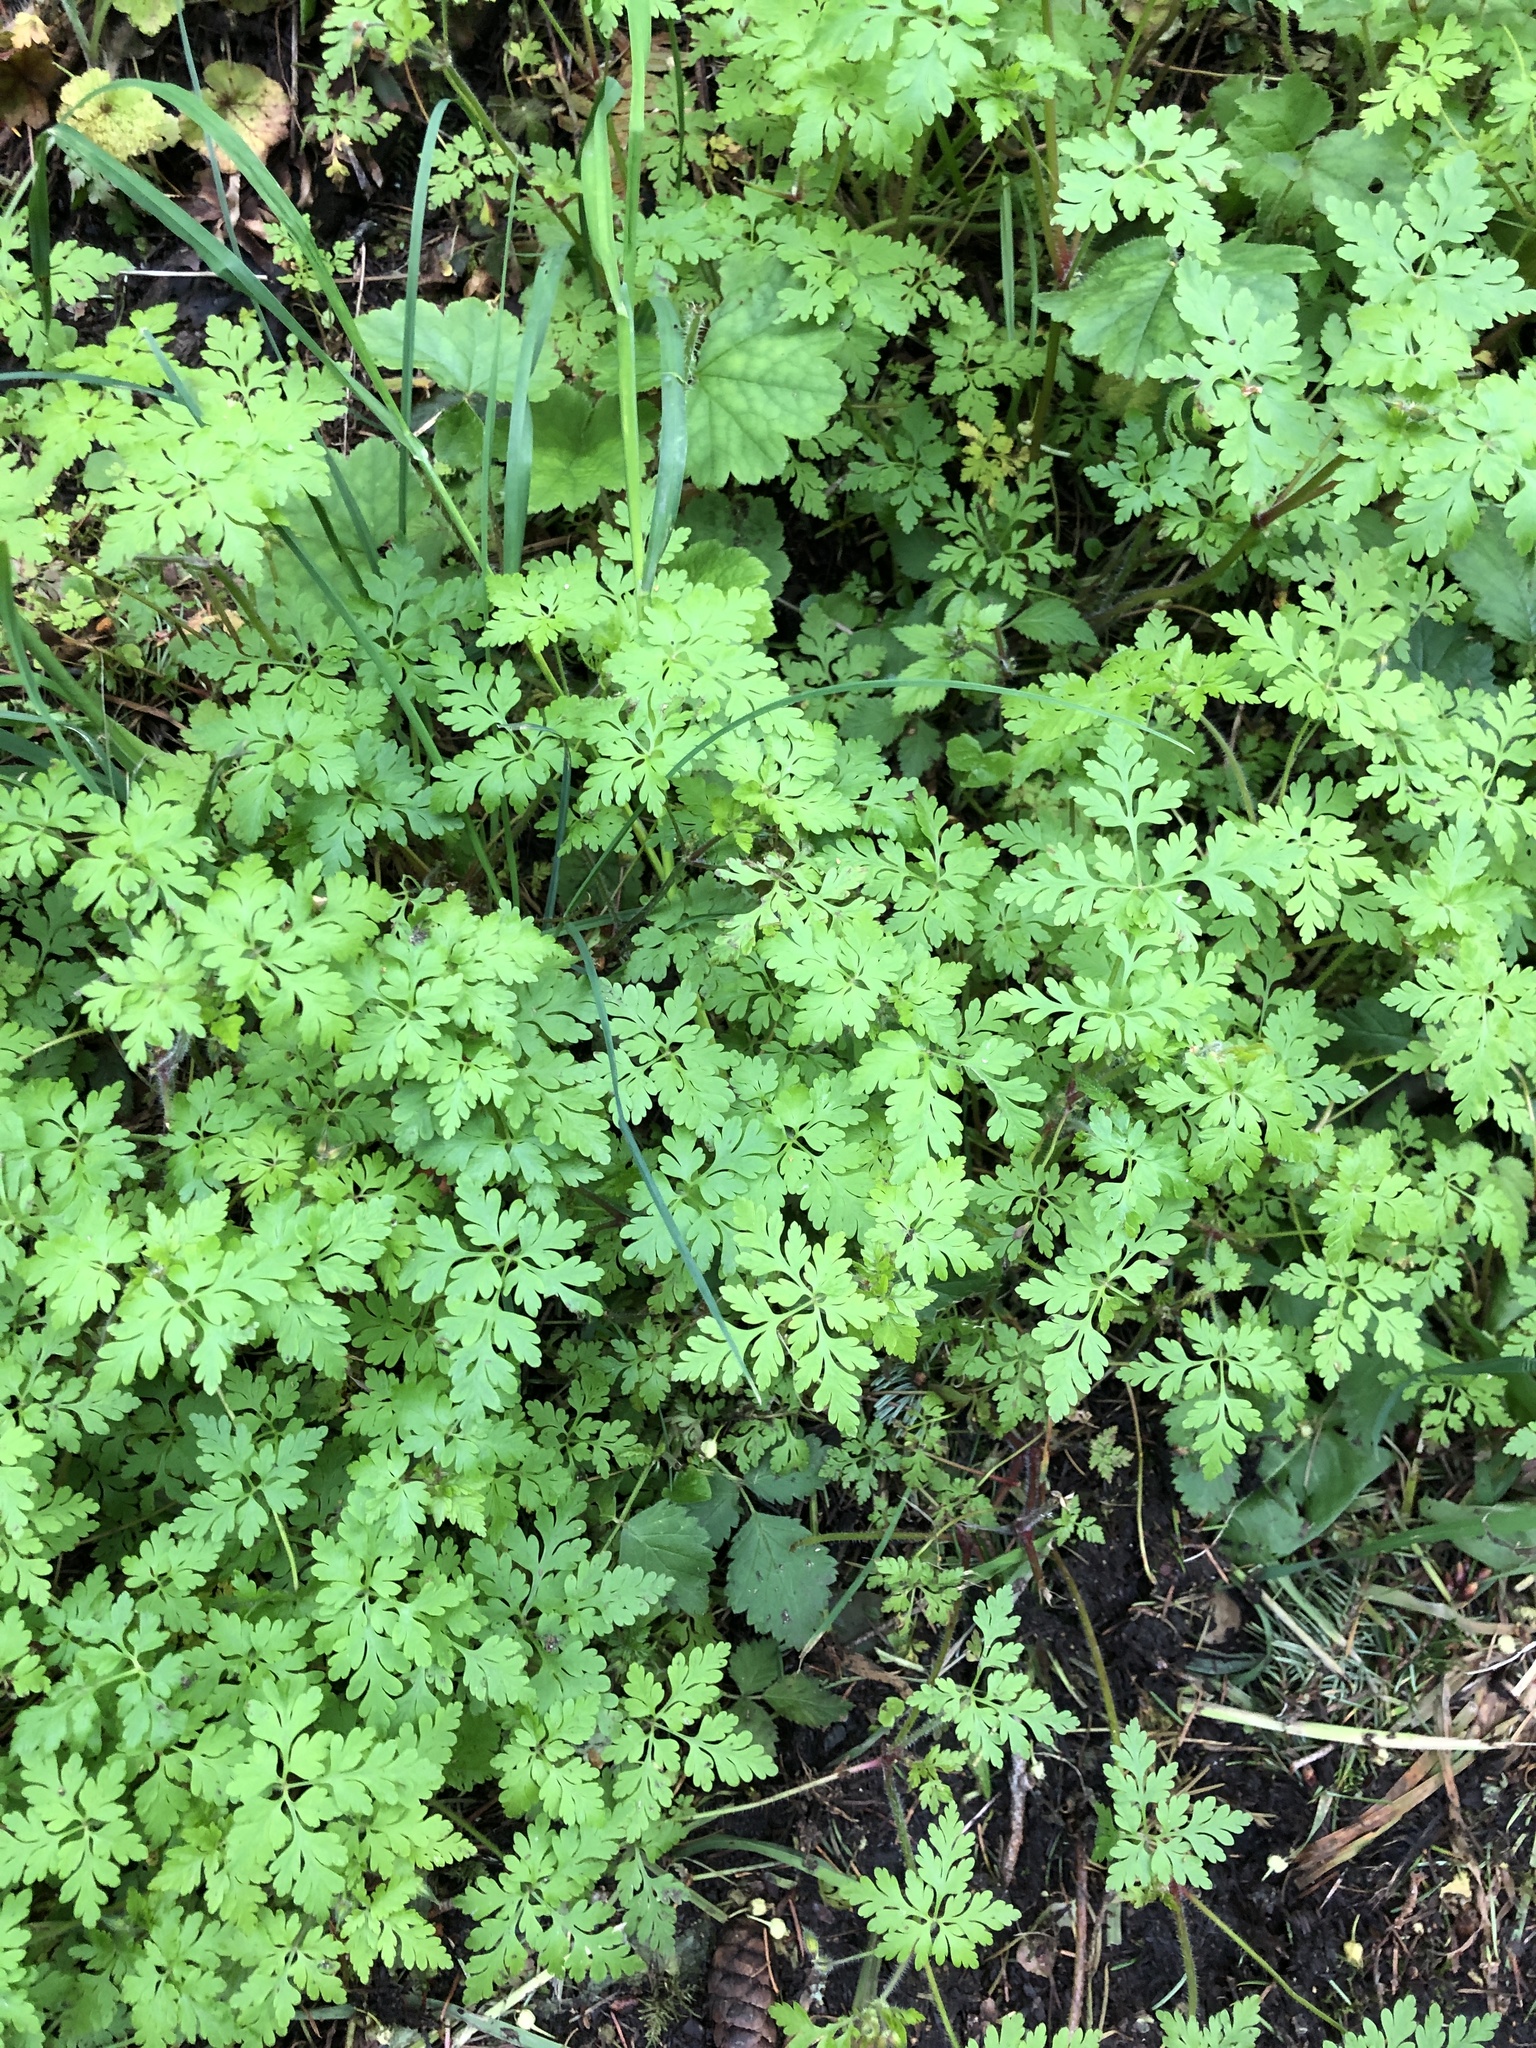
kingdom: Plantae
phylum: Tracheophyta
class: Magnoliopsida
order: Geraniales
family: Geraniaceae
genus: Geranium
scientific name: Geranium robertianum
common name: Herb-robert
